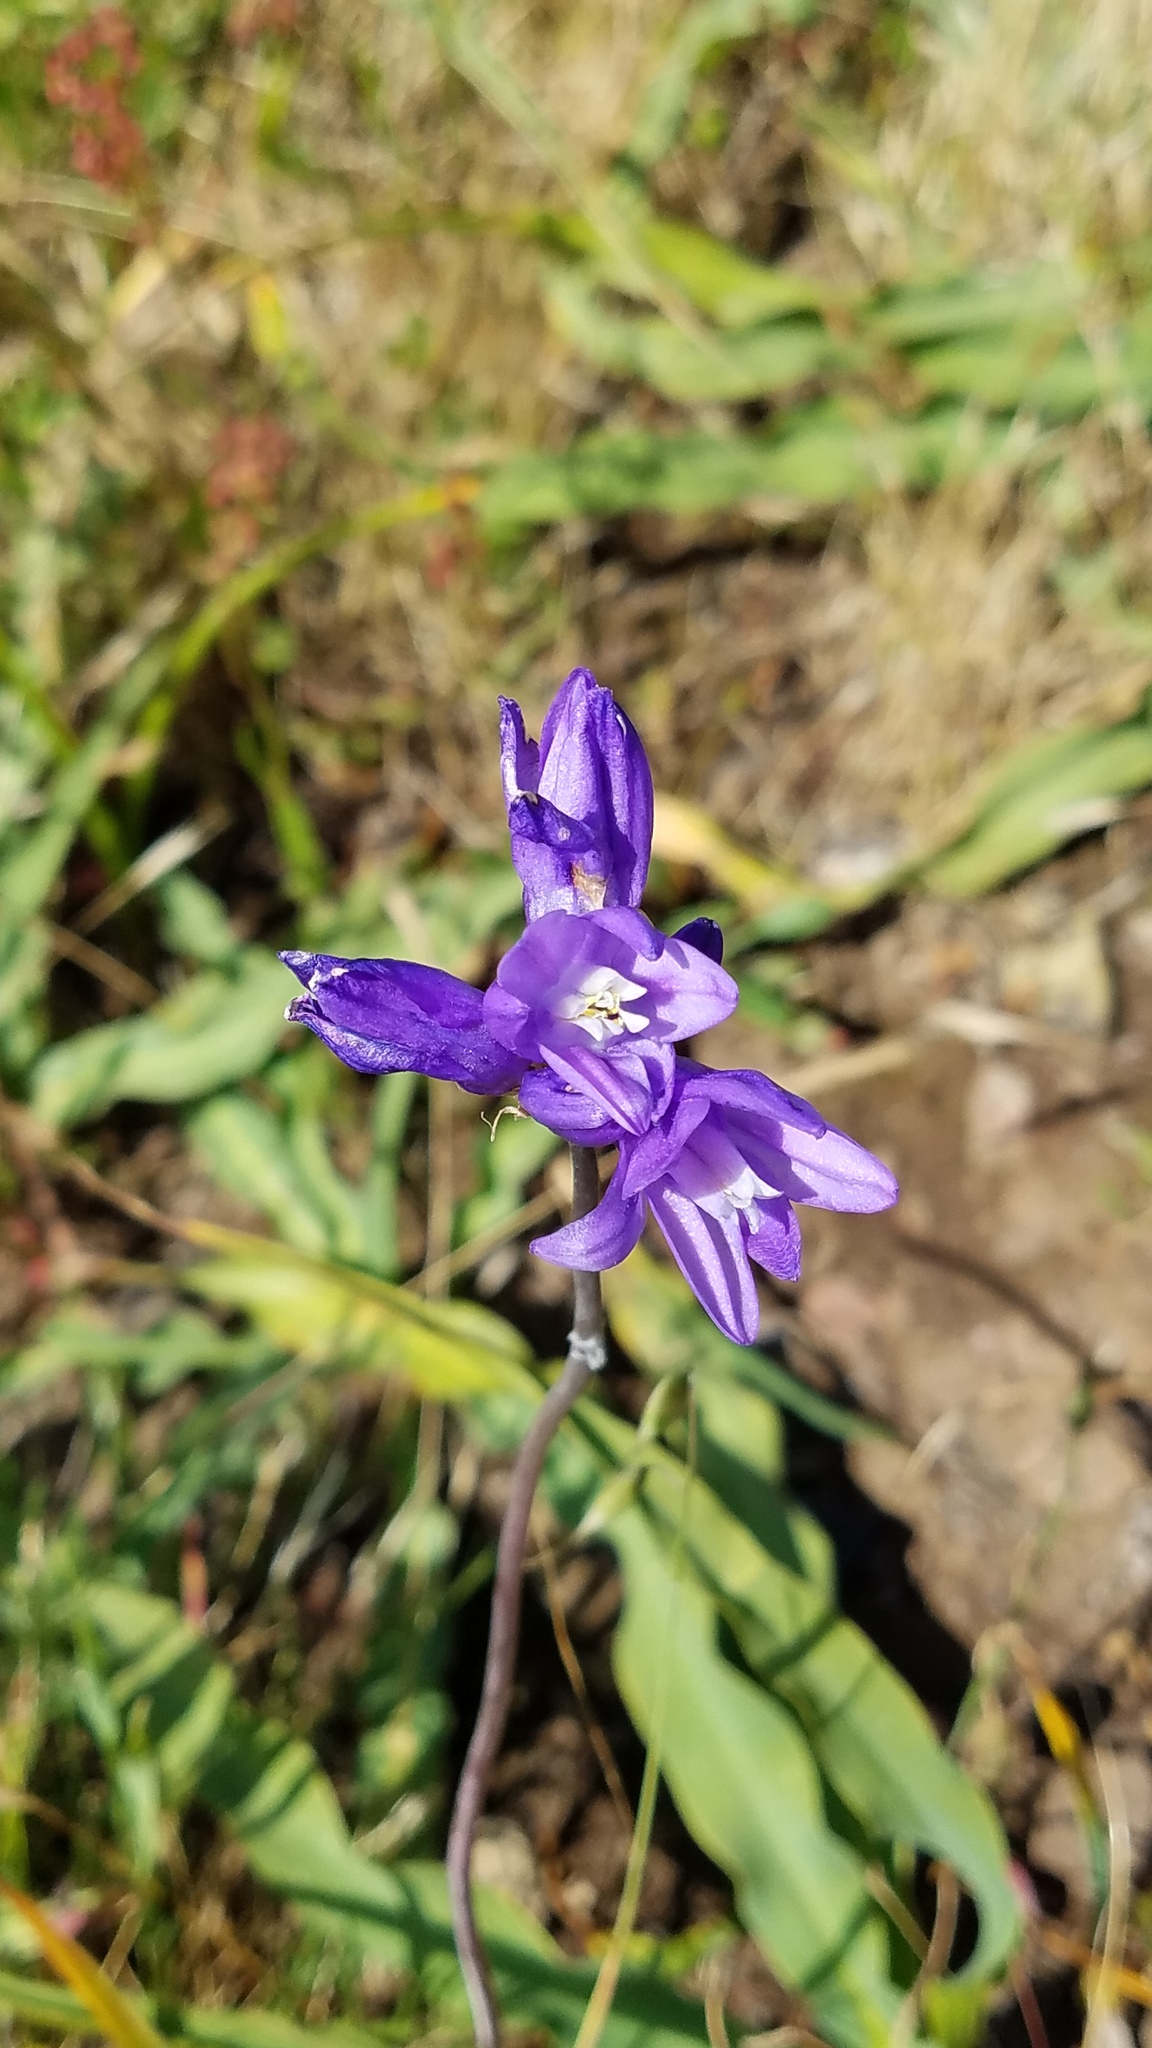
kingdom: Plantae
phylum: Tracheophyta
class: Liliopsida
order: Asparagales
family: Asparagaceae
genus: Dipterostemon
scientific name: Dipterostemon capitatus
